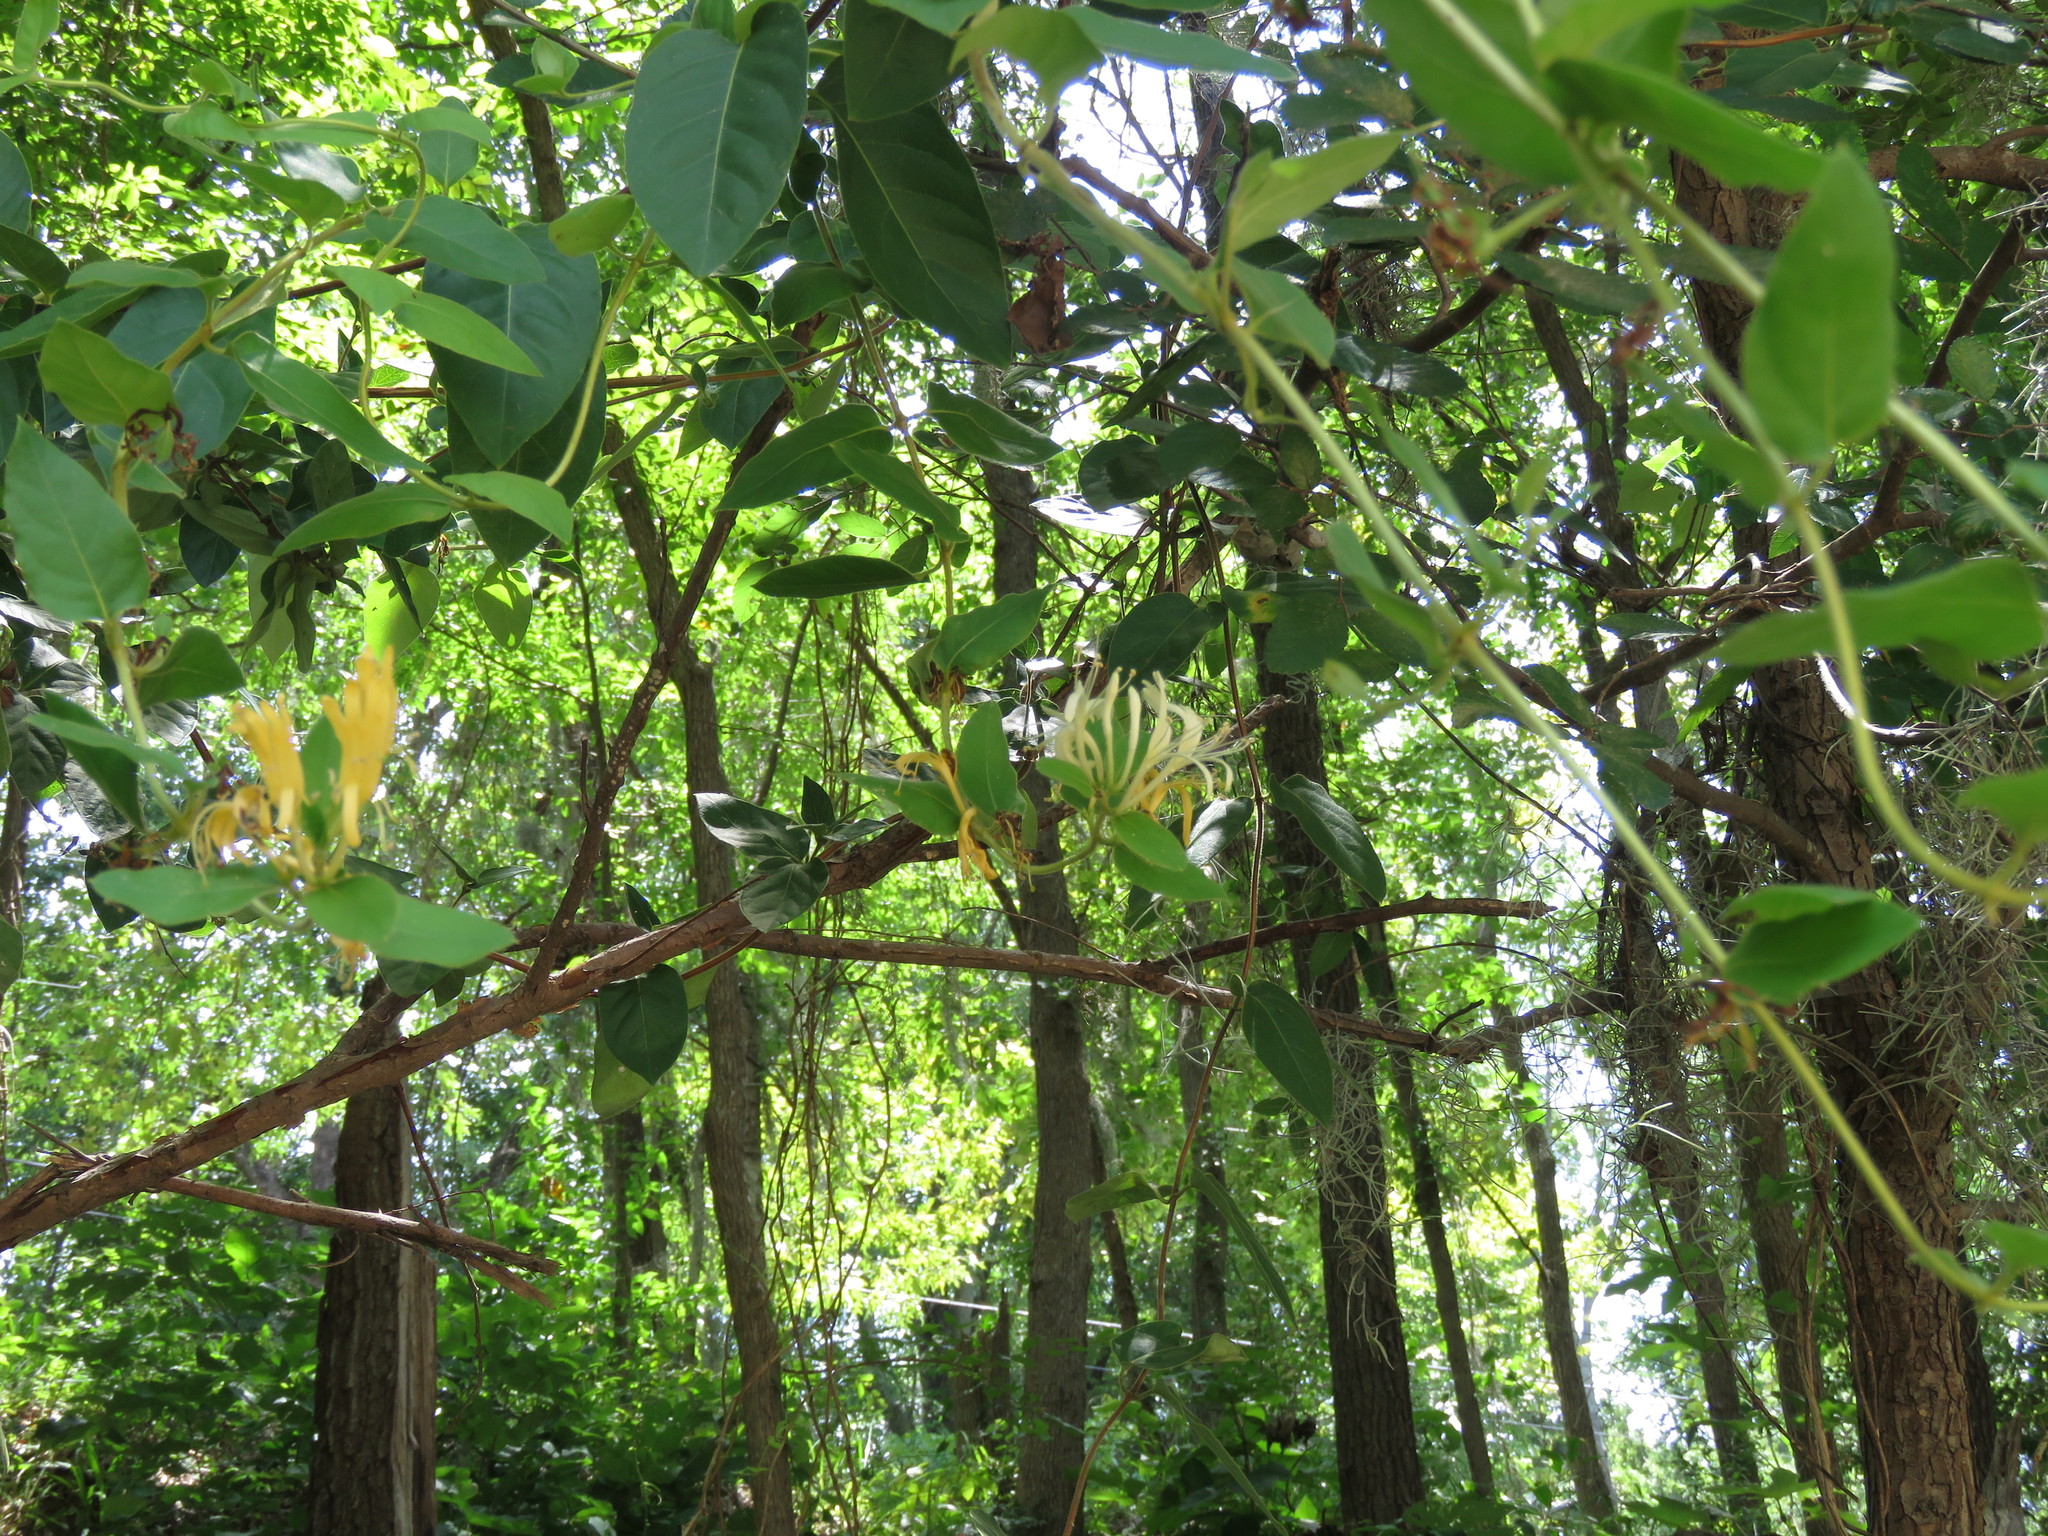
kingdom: Plantae
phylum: Tracheophyta
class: Magnoliopsida
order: Dipsacales
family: Caprifoliaceae
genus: Lonicera
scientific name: Lonicera japonica
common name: Japanese honeysuckle
